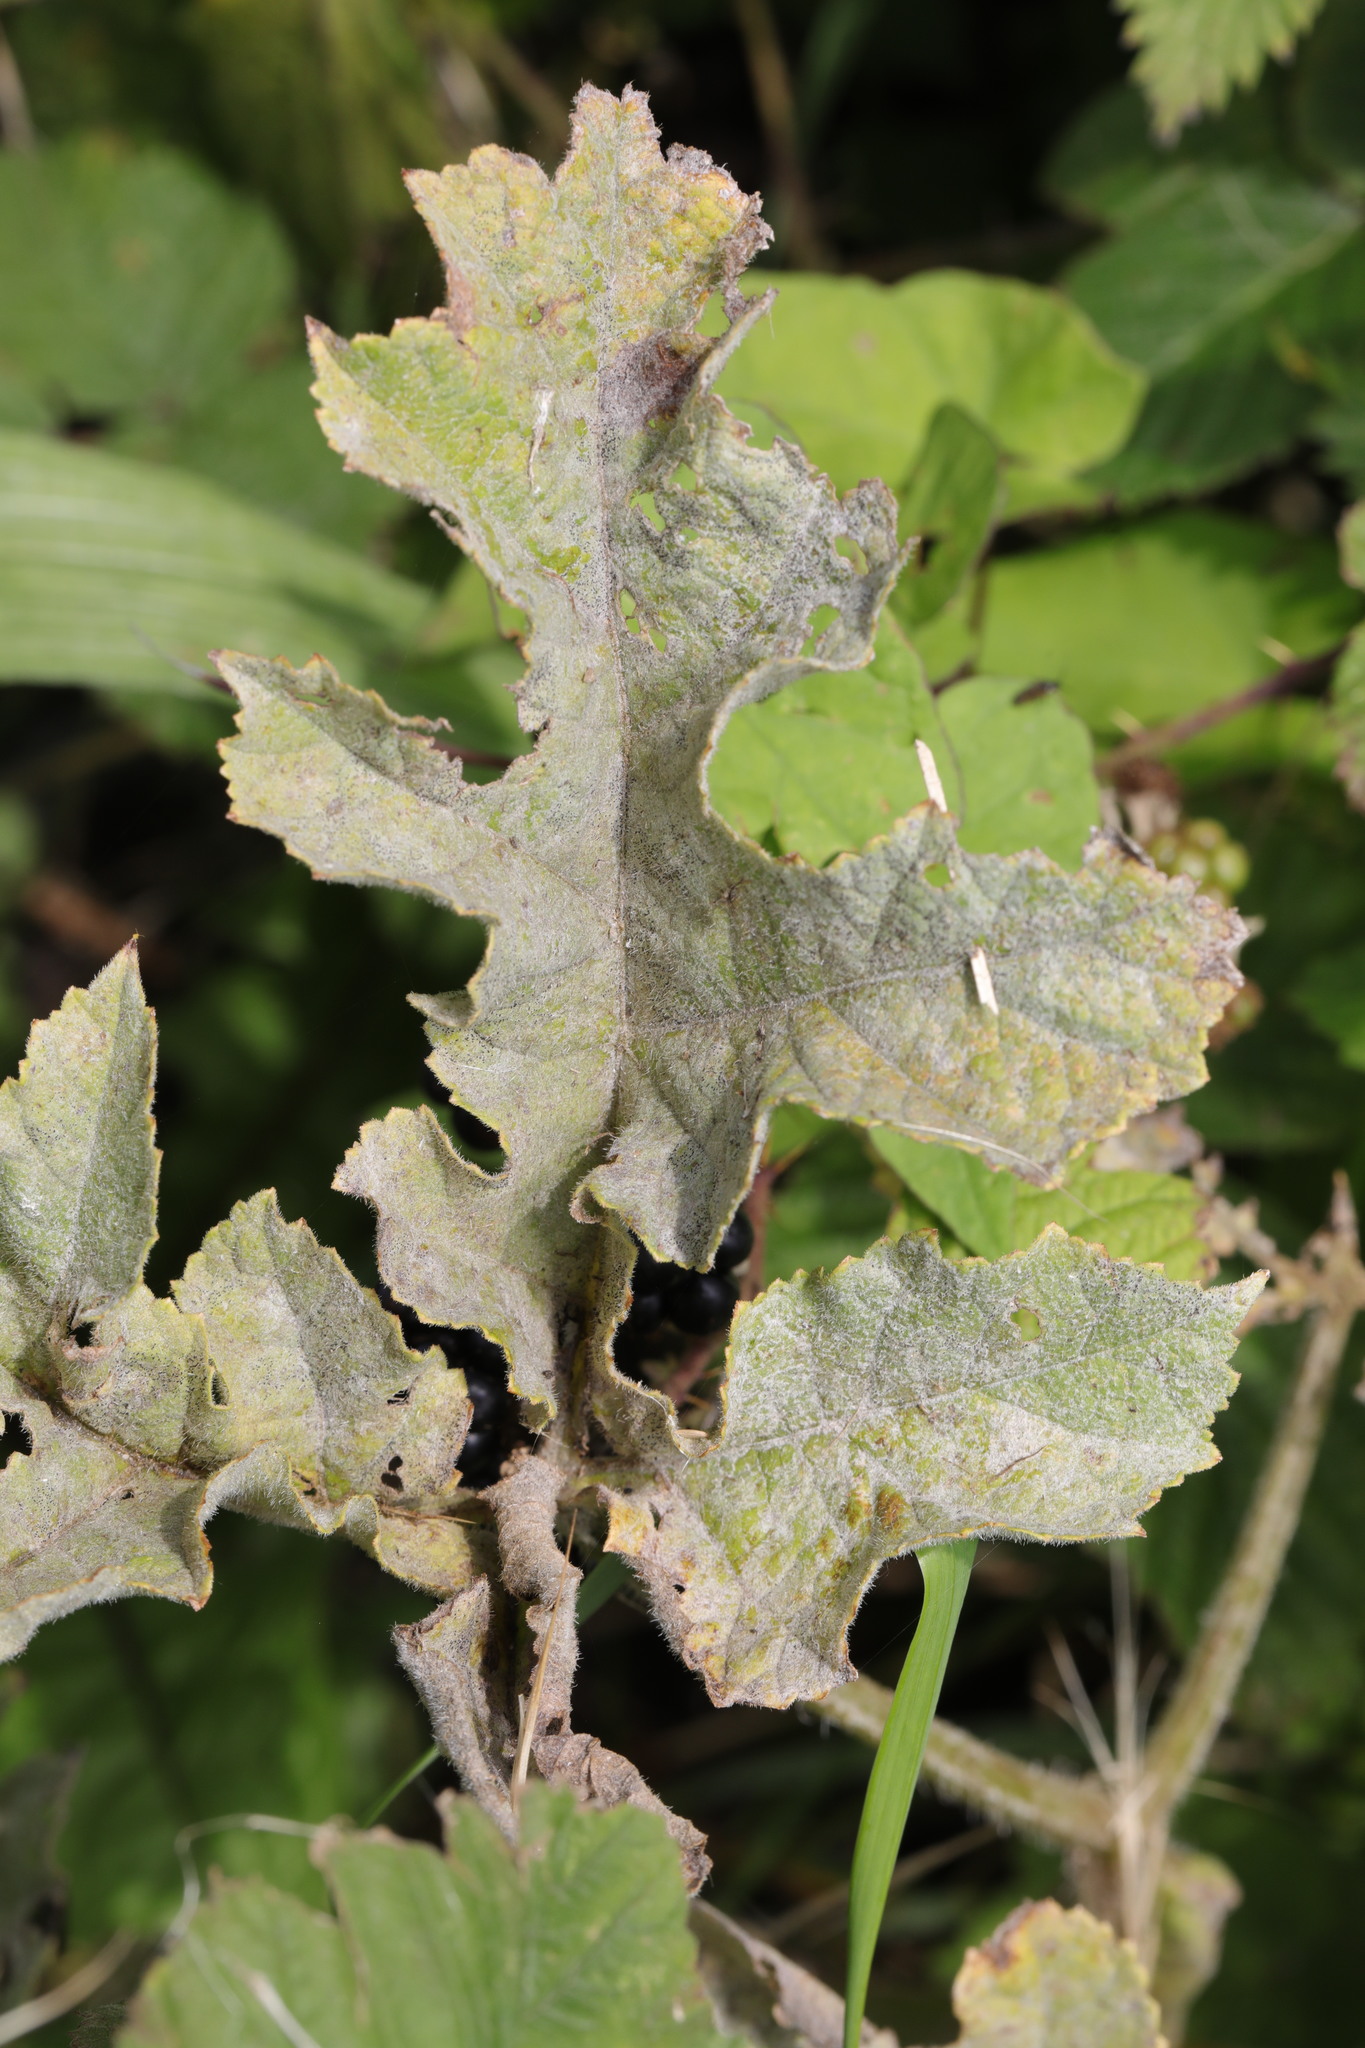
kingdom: Plantae
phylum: Tracheophyta
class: Magnoliopsida
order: Apiales
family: Apiaceae
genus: Heracleum
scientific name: Heracleum sphondylium
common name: Hogweed
